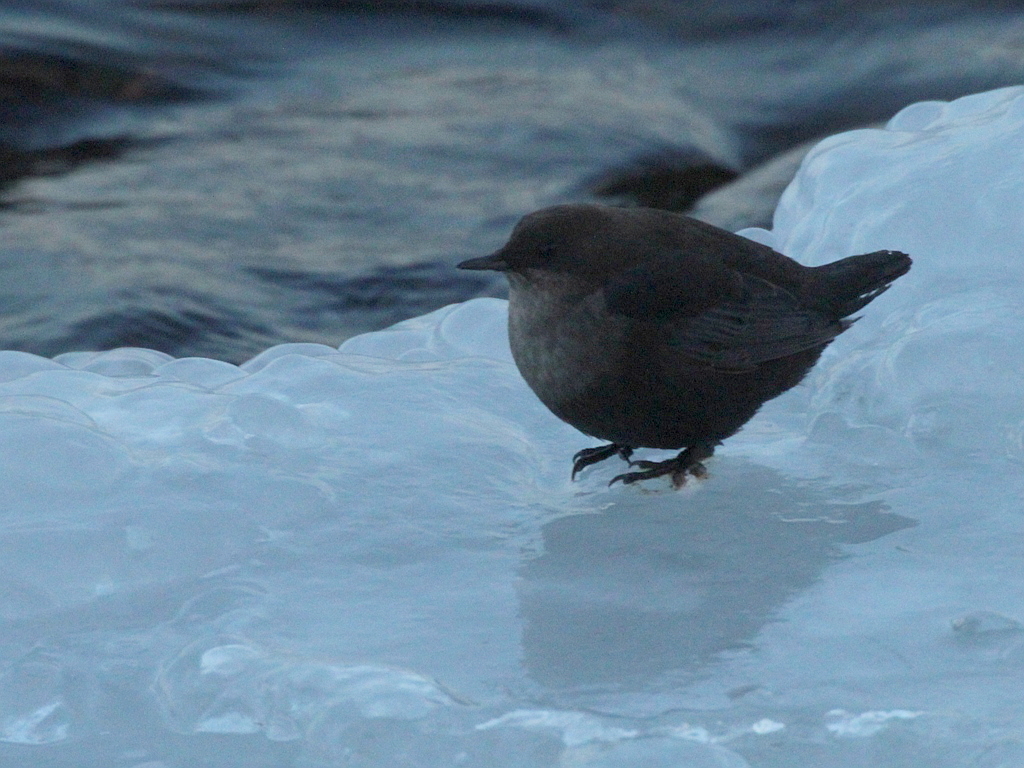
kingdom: Animalia
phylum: Chordata
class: Aves
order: Passeriformes
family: Cinclidae
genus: Cinclus
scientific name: Cinclus cinclus
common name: White-throated dipper
